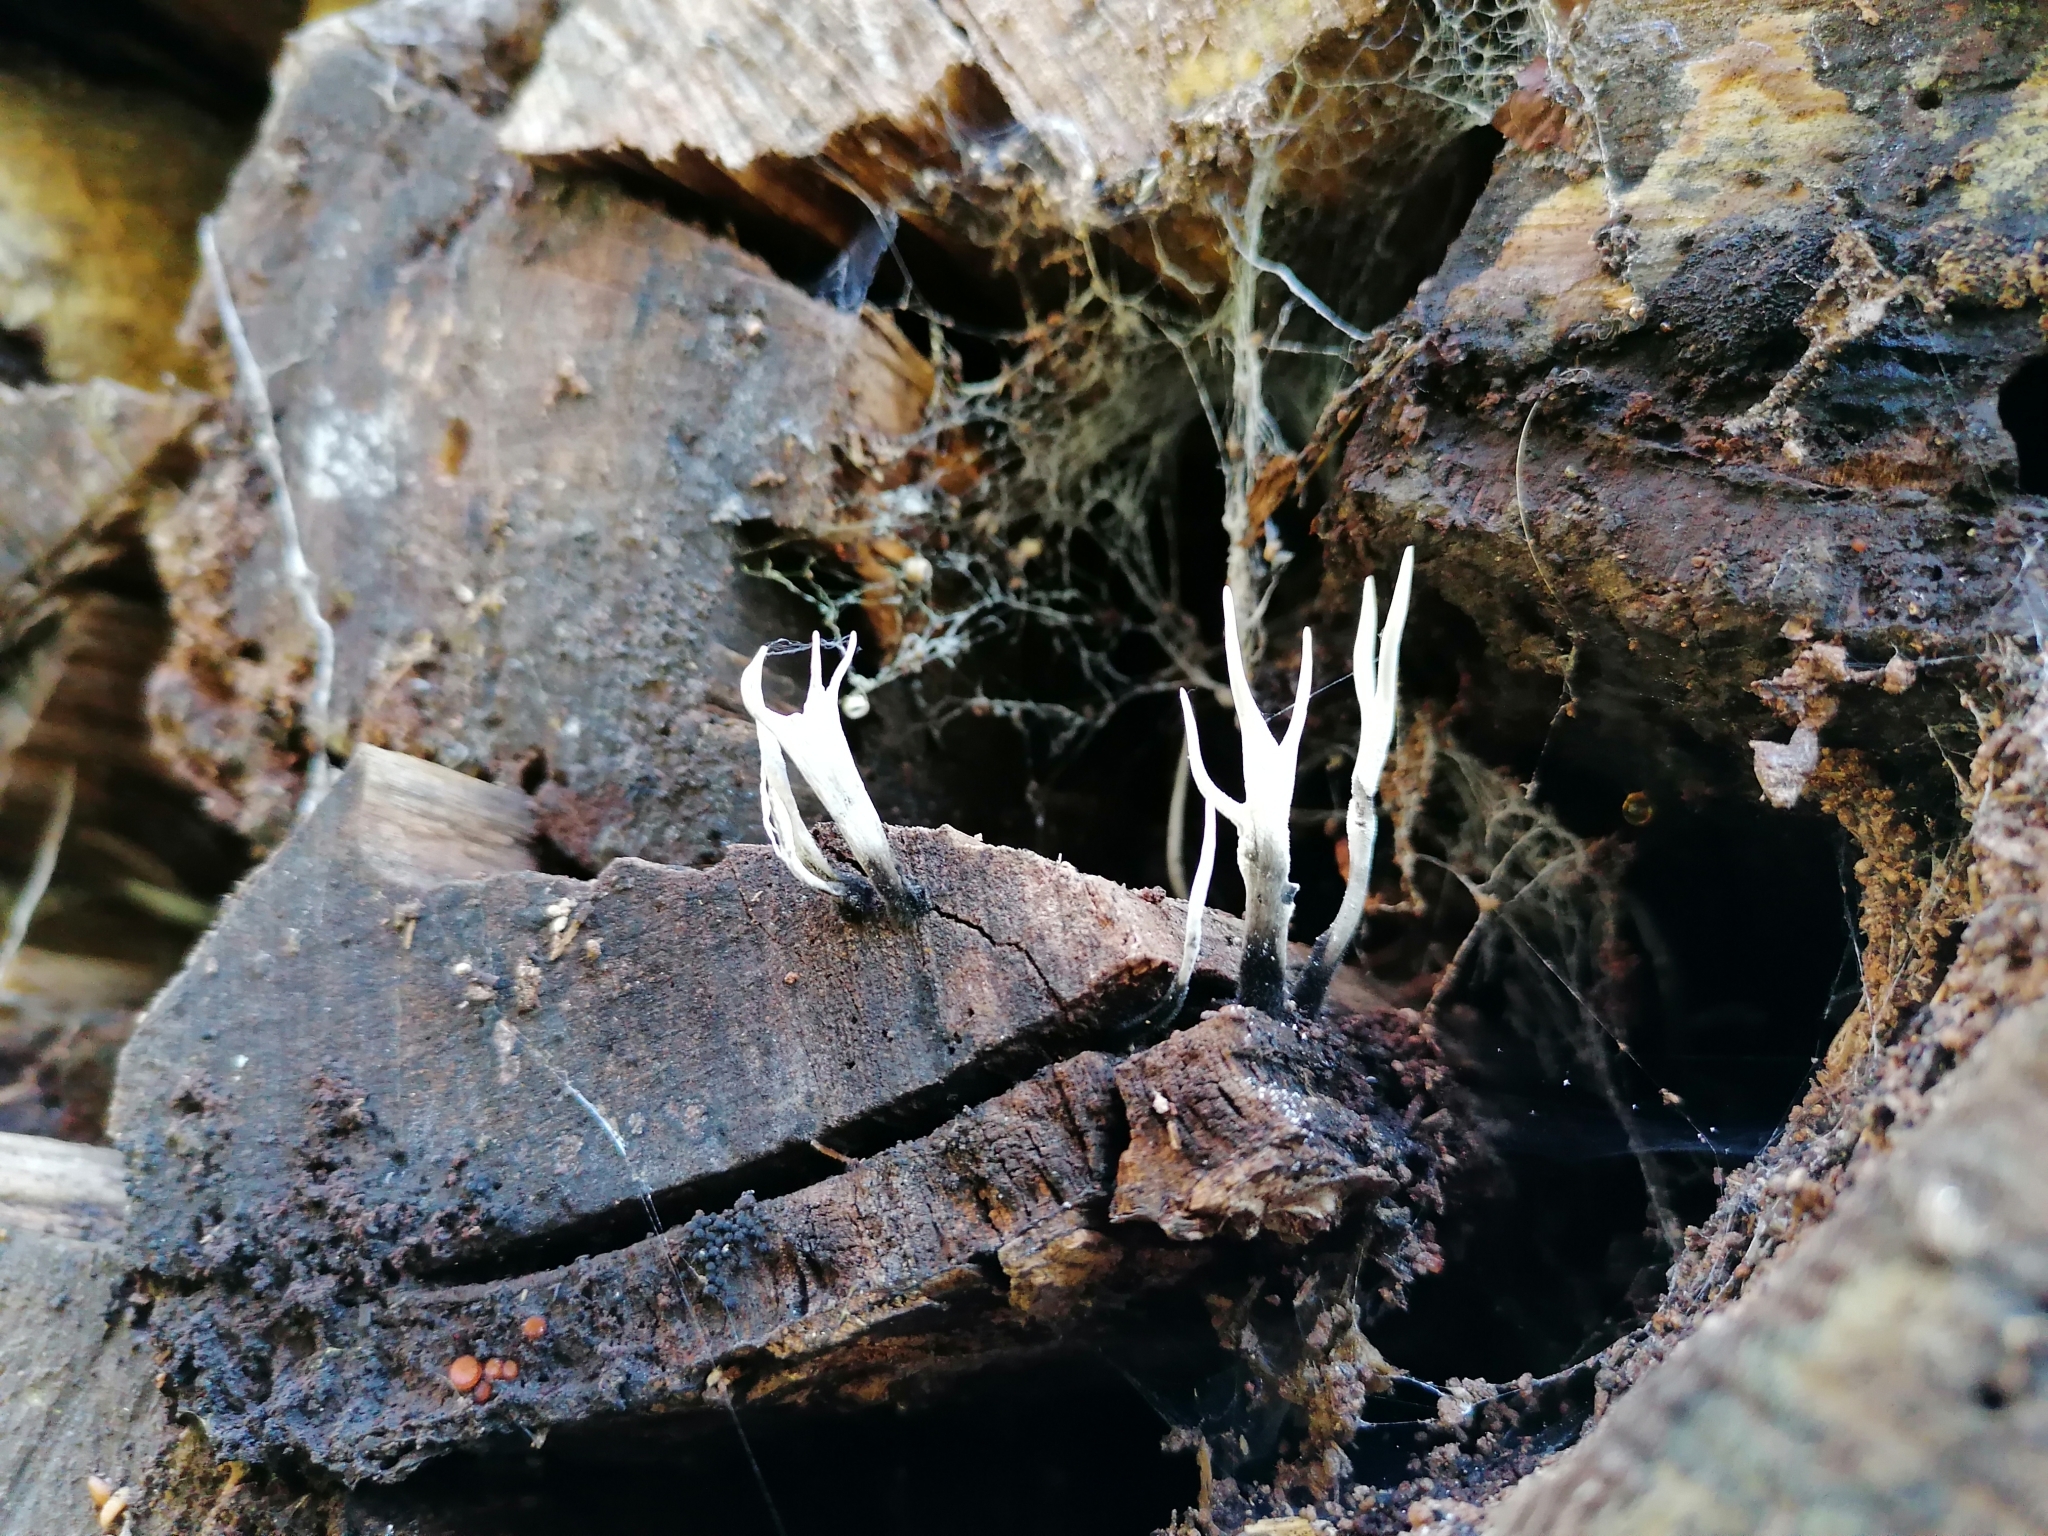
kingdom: Fungi
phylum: Ascomycota
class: Sordariomycetes
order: Xylariales
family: Xylariaceae
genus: Xylaria
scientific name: Xylaria hypoxylon
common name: Candle-snuff fungus
